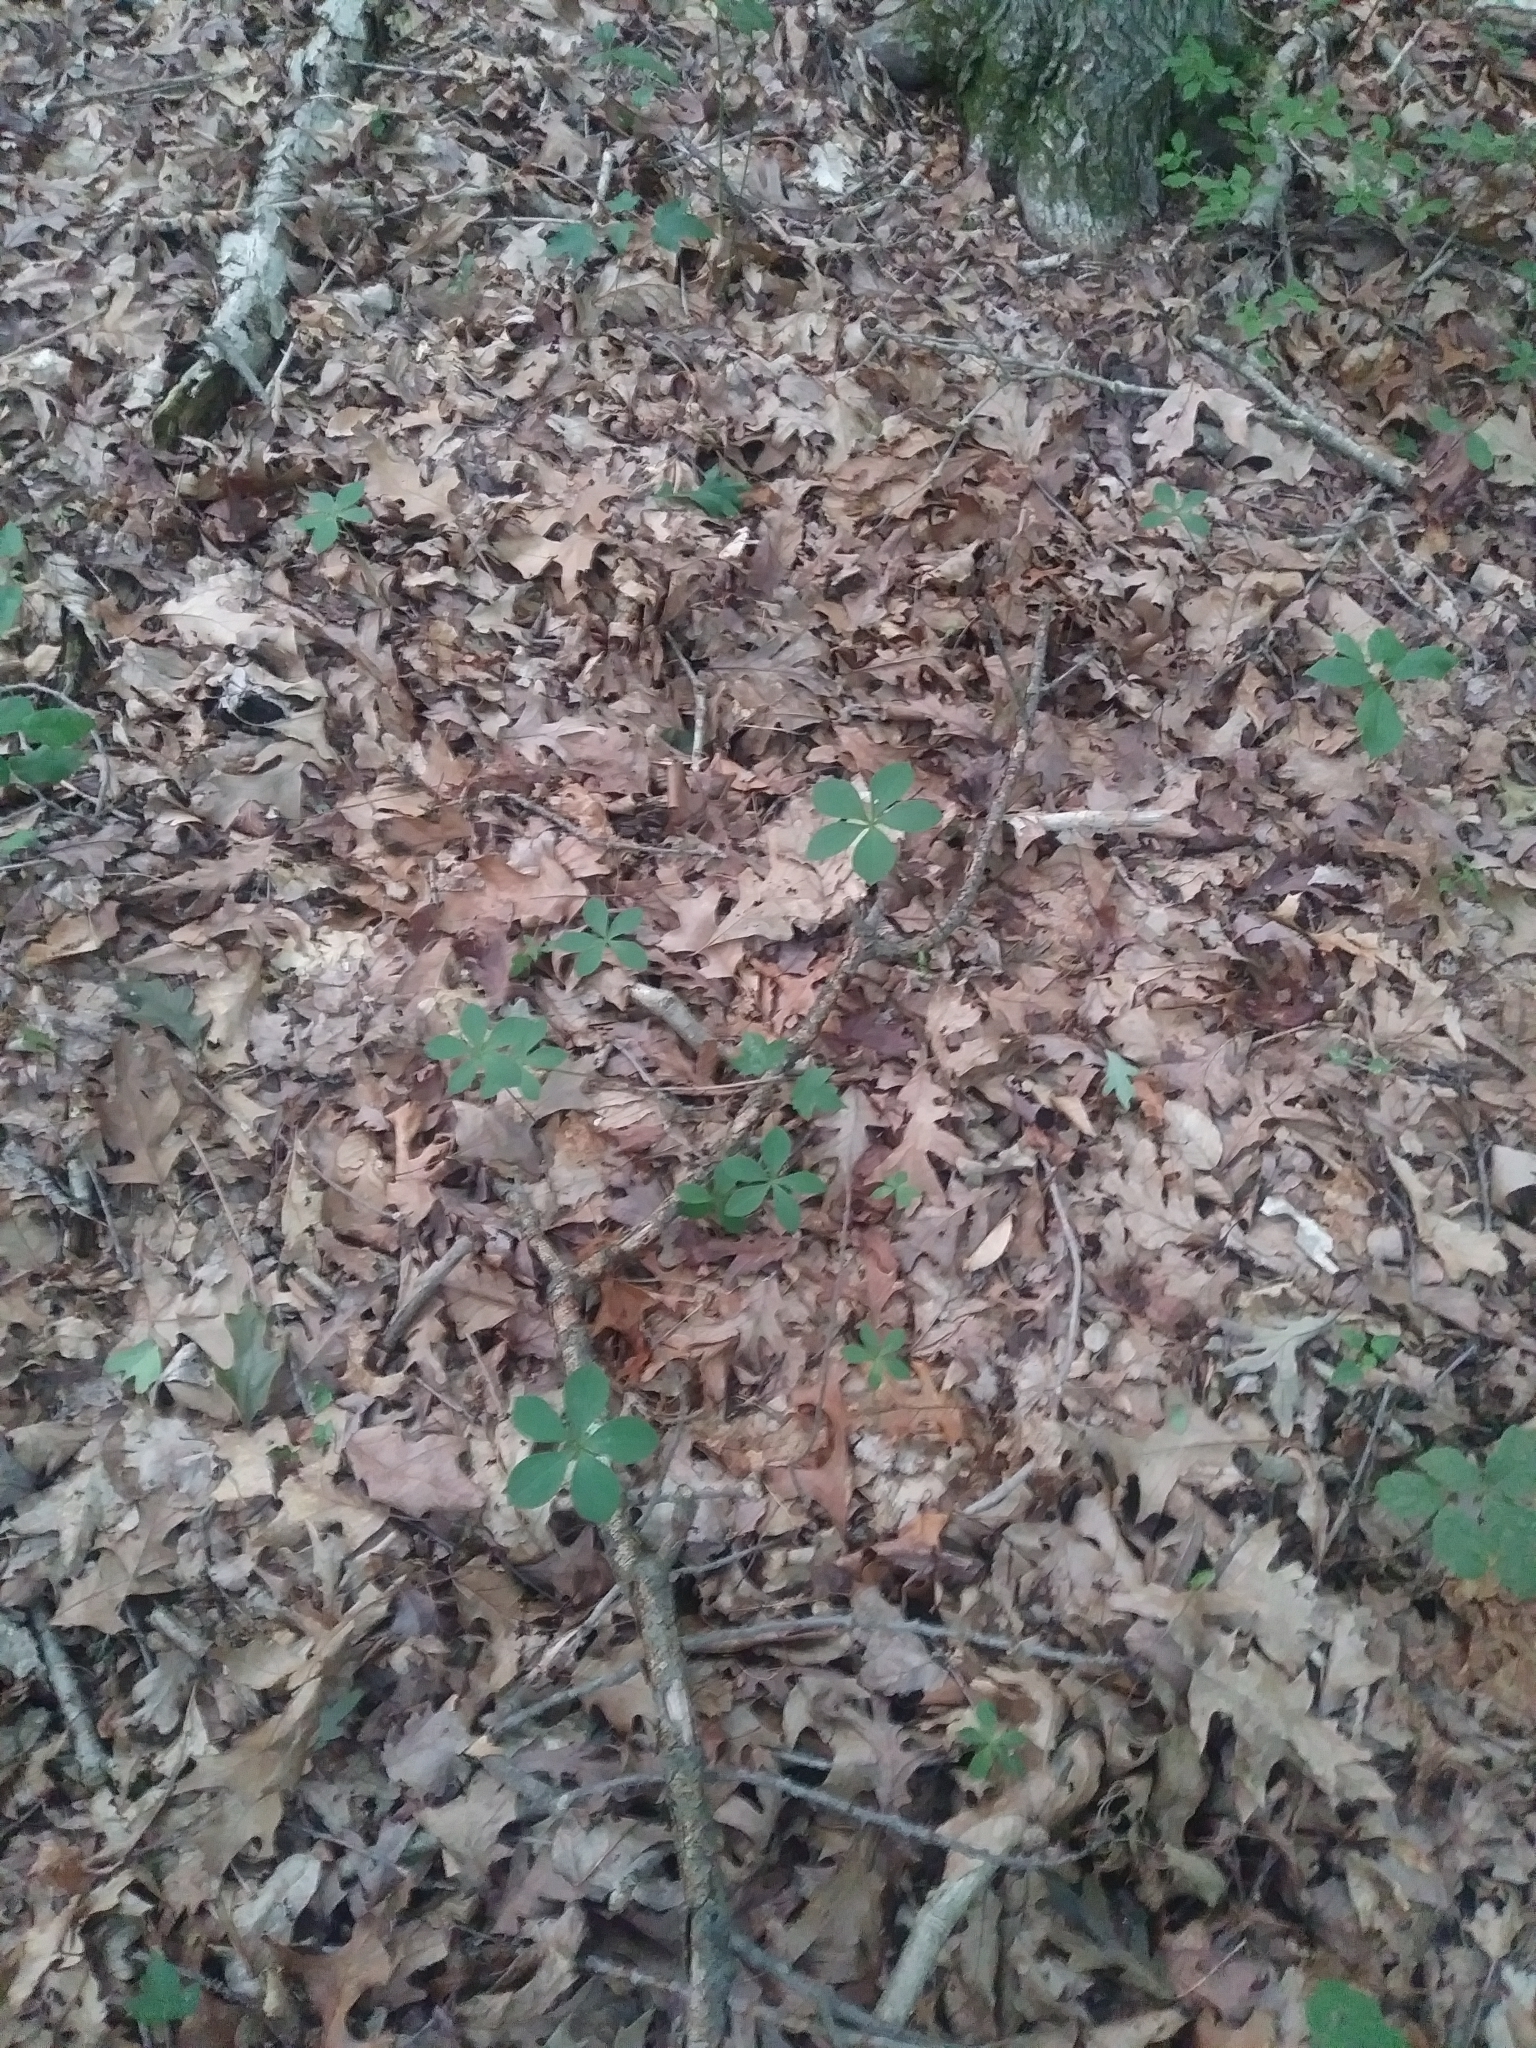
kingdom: Plantae
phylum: Tracheophyta
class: Liliopsida
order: Asparagales
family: Orchidaceae
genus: Isotria
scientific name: Isotria verticillata
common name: Large whorled pogonia
